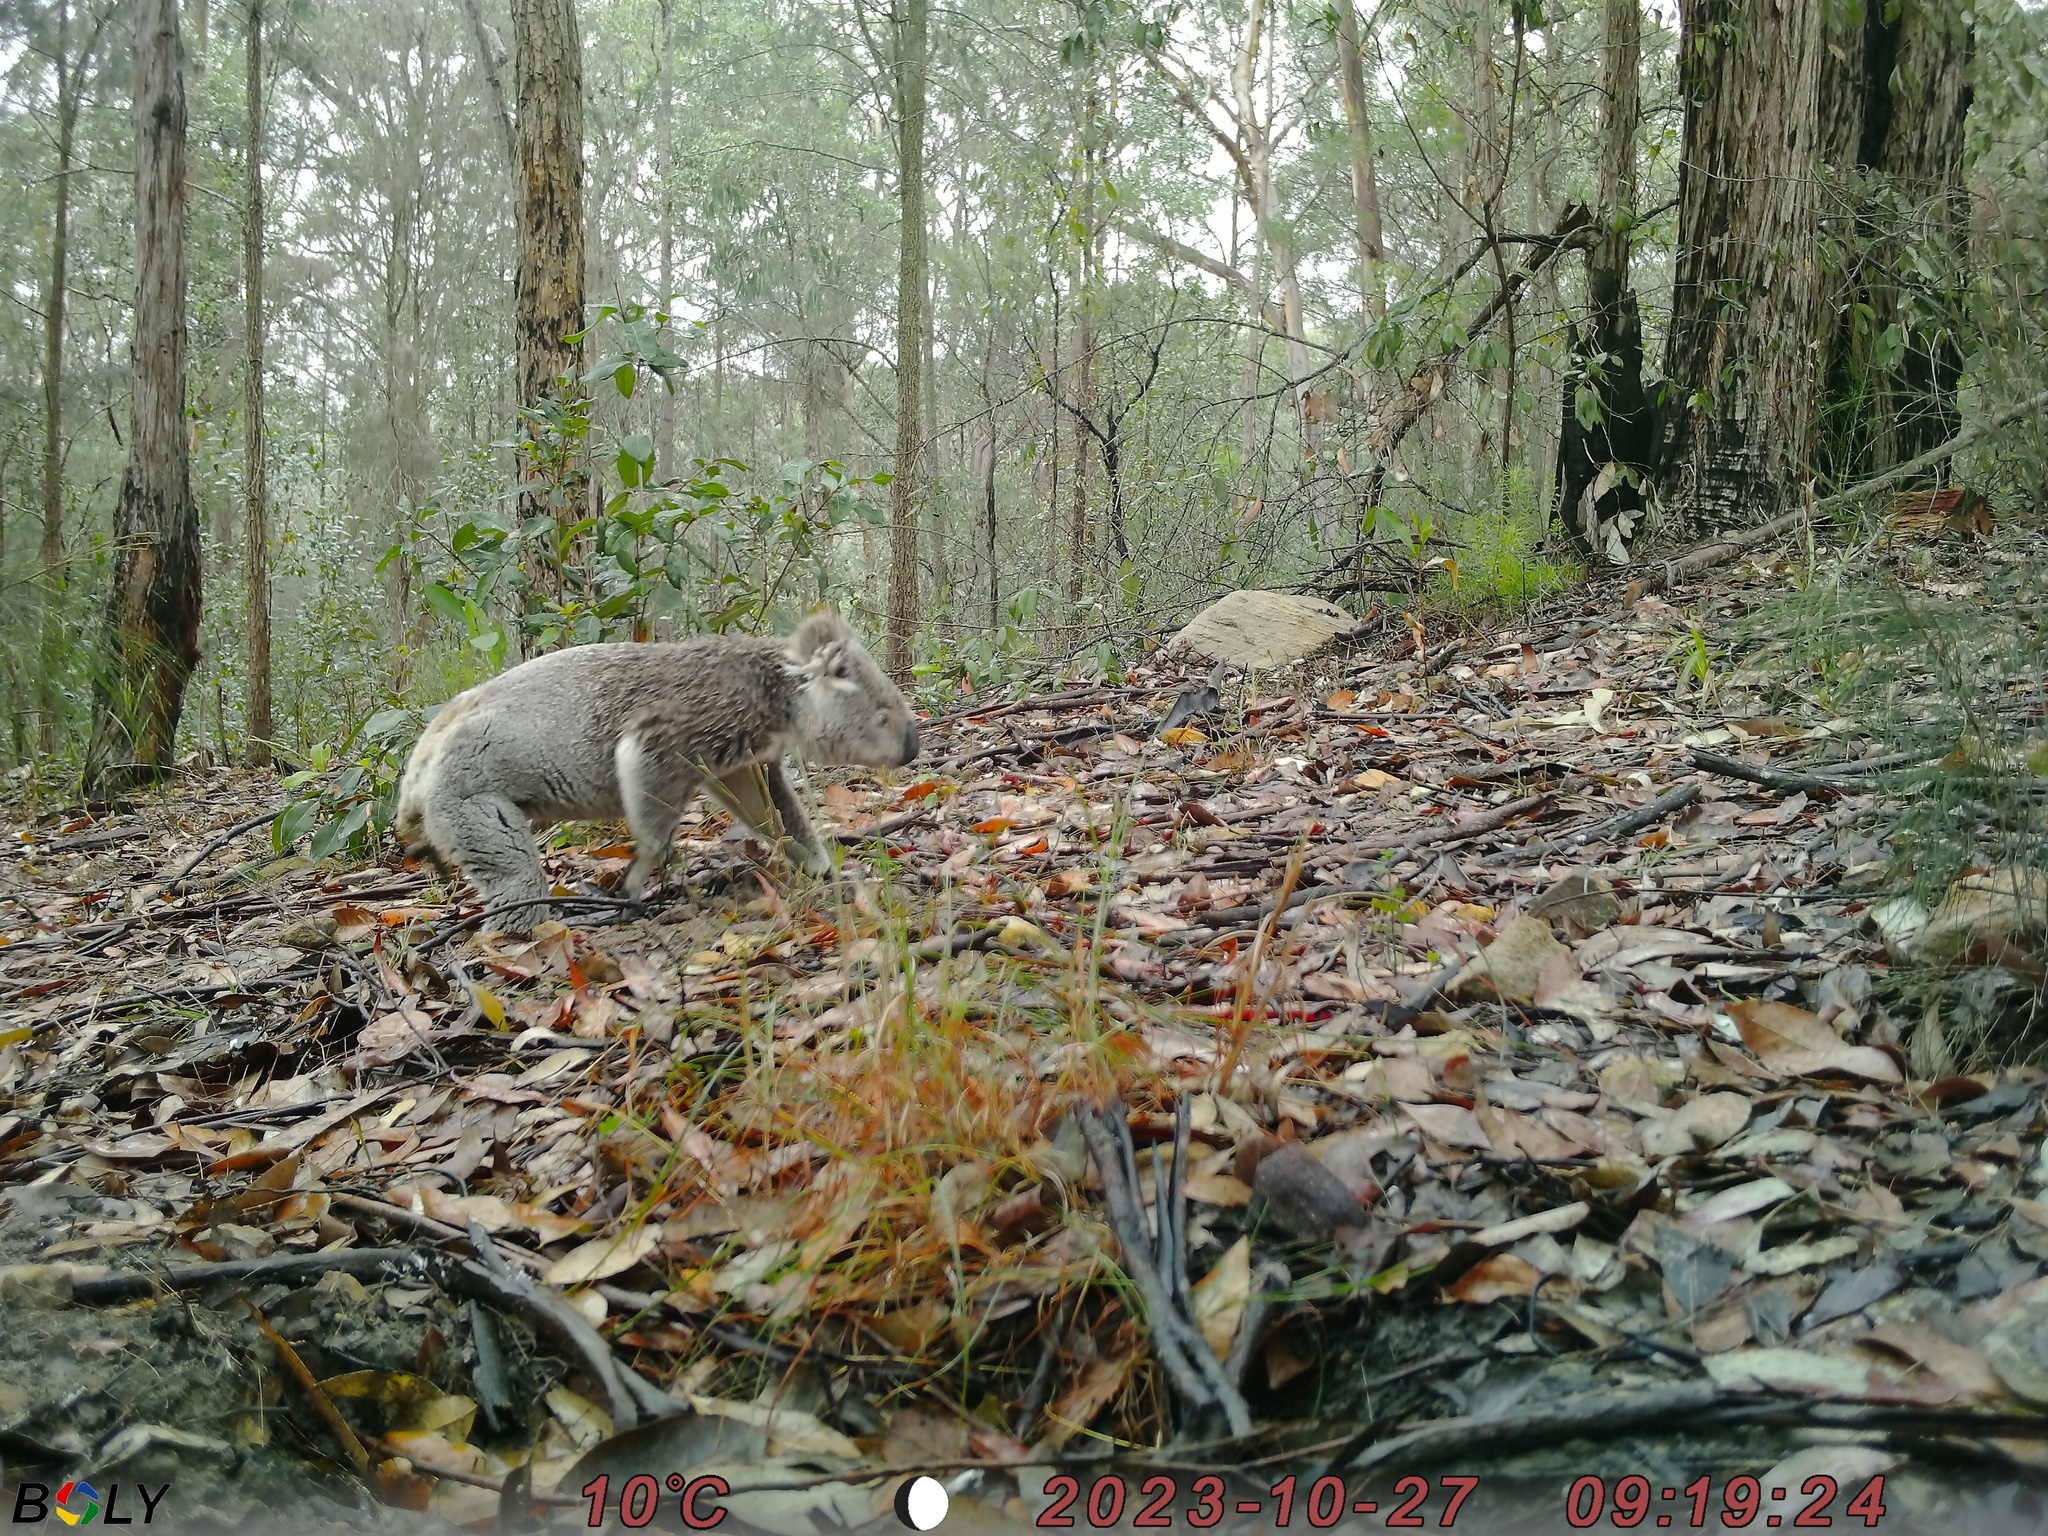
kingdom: Animalia
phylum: Chordata
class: Mammalia
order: Diprotodontia
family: Phascolarctidae
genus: Phascolarctos
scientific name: Phascolarctos cinereus
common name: Koala
